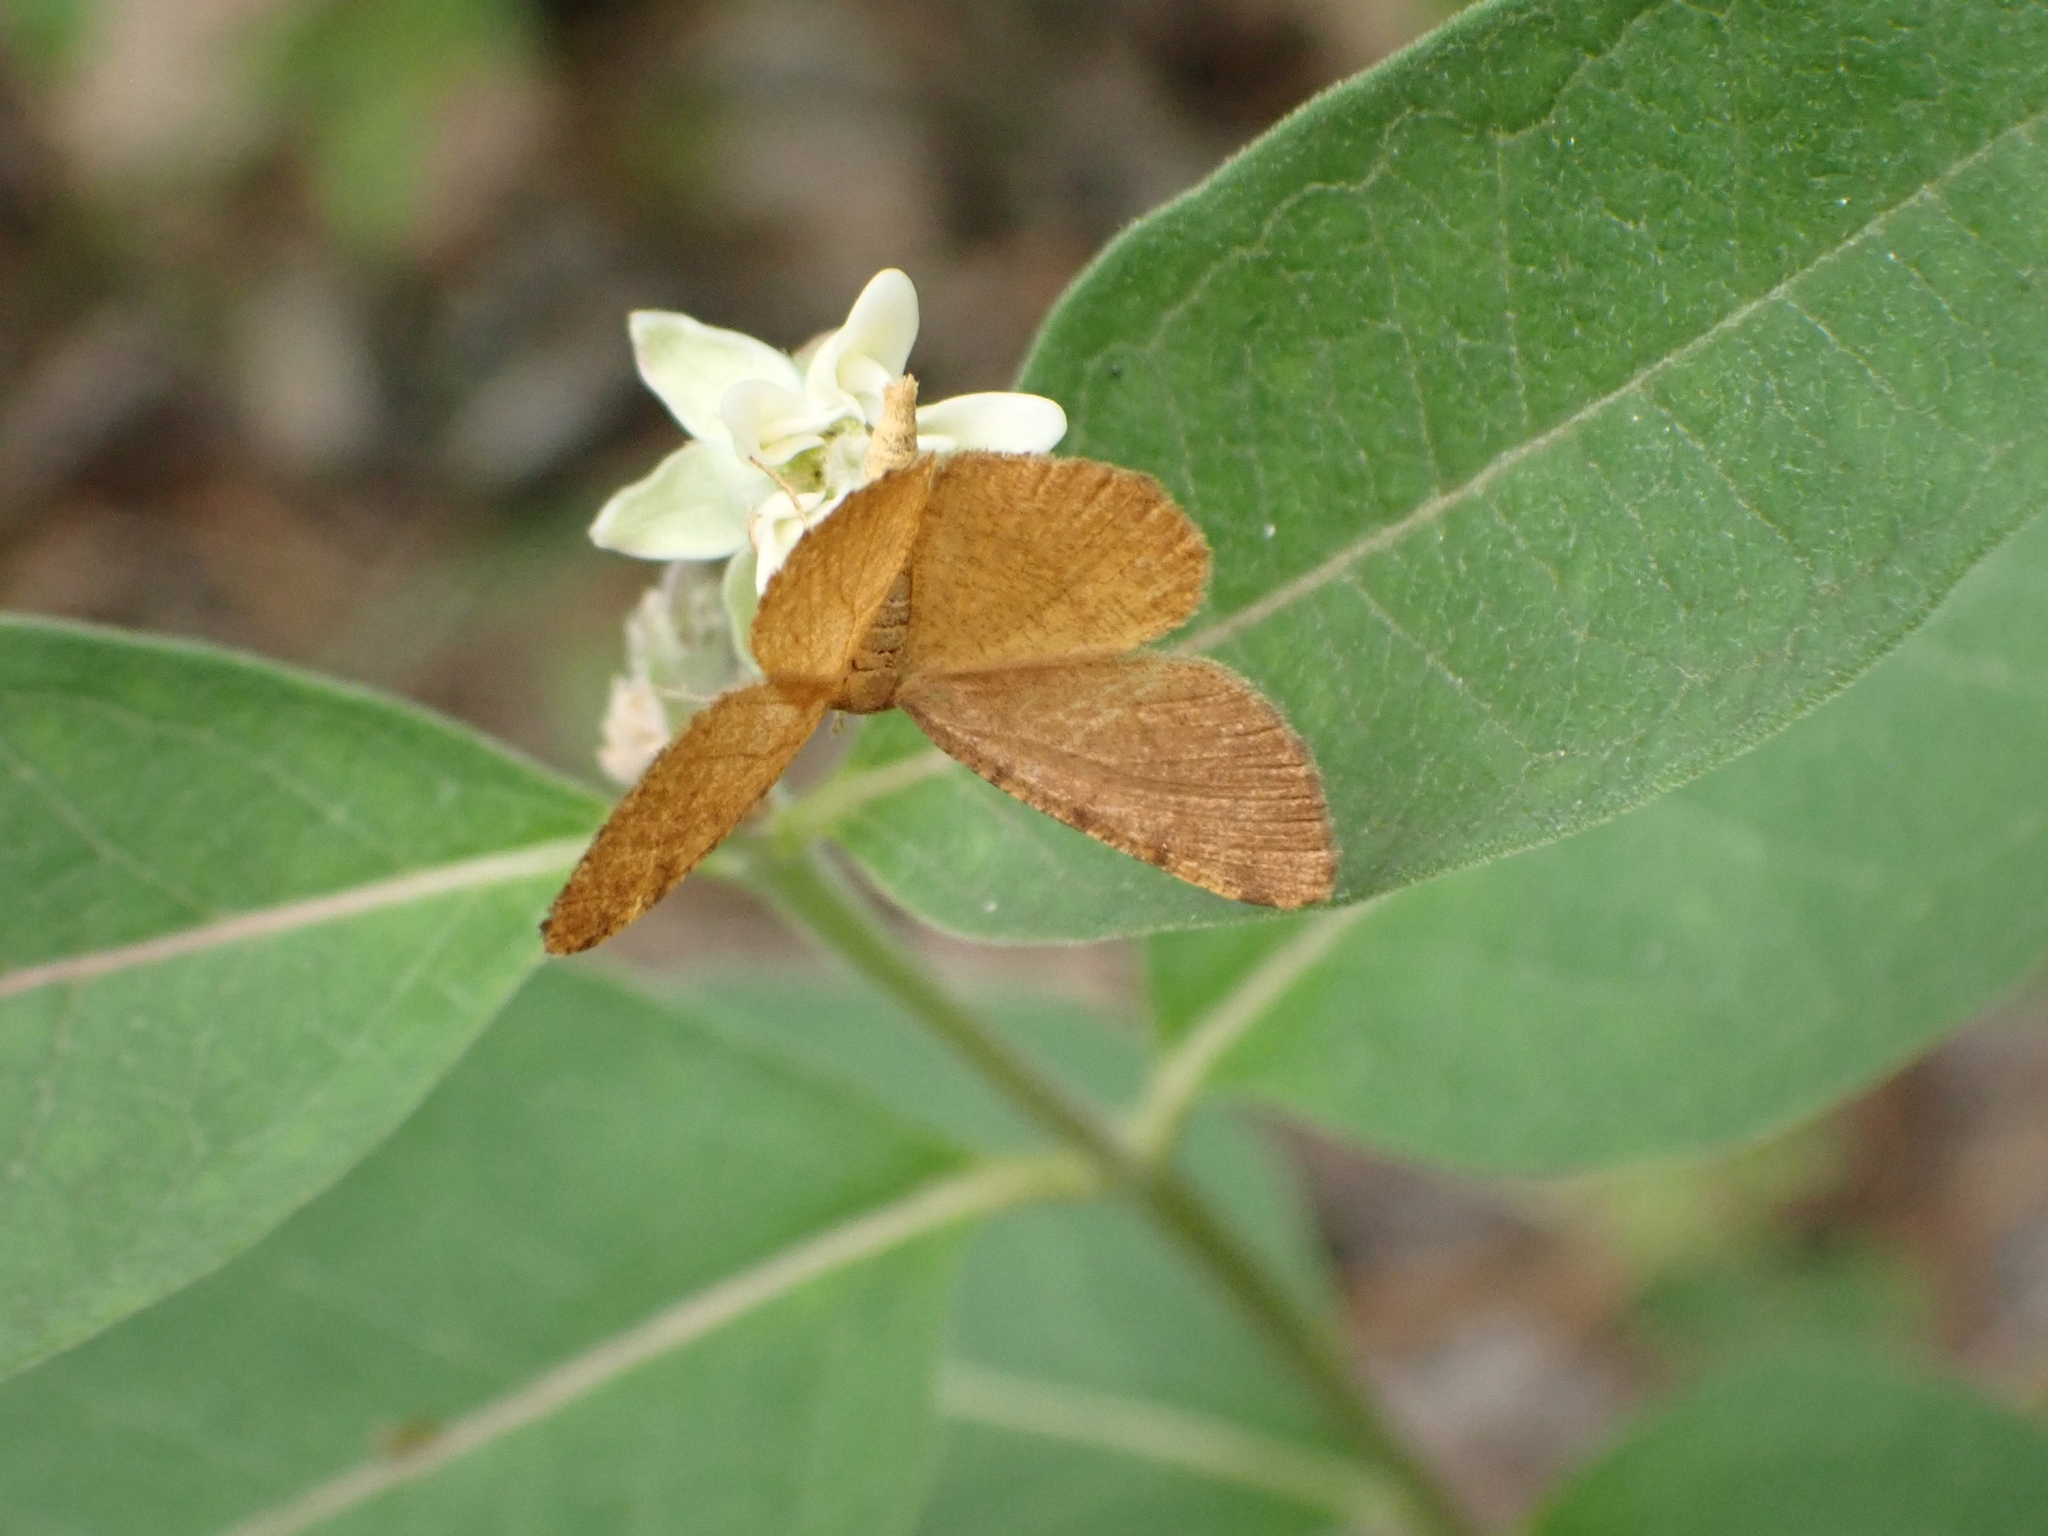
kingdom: Animalia
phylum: Arthropoda
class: Insecta
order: Lepidoptera
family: Geometridae
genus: Macaria
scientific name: Macaria brunneata
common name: Rannoch looper
